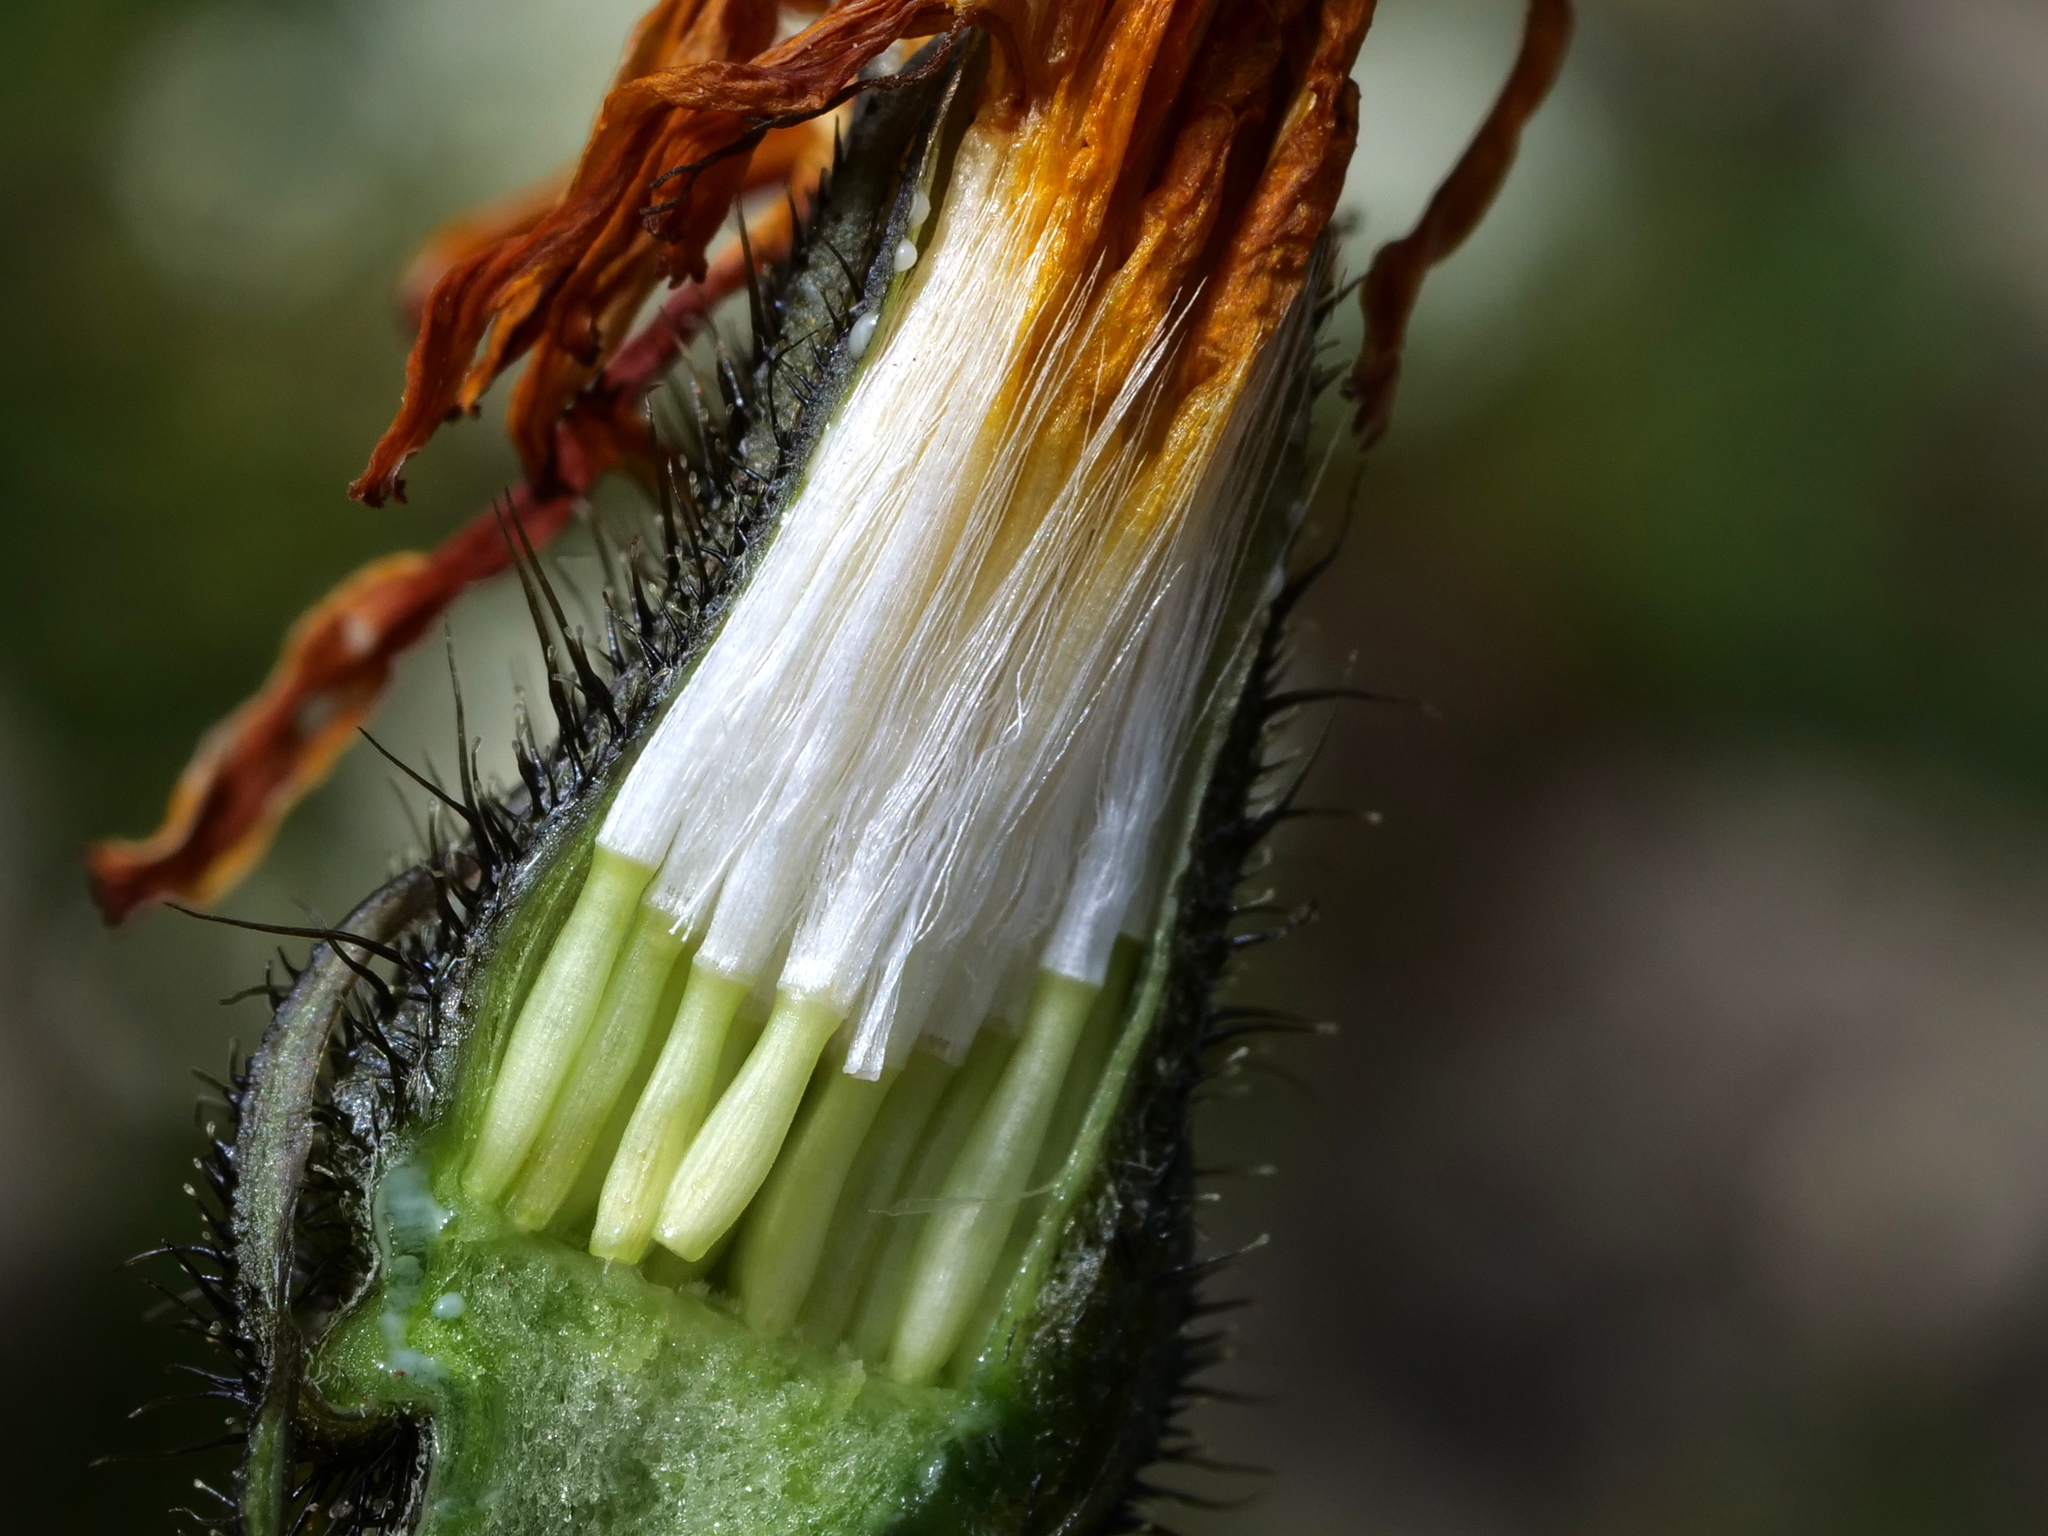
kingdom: Plantae
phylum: Tracheophyta
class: Magnoliopsida
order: Asterales
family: Asteraceae
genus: Leontodon
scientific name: Leontodon hispidus
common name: Rough hawkbit
